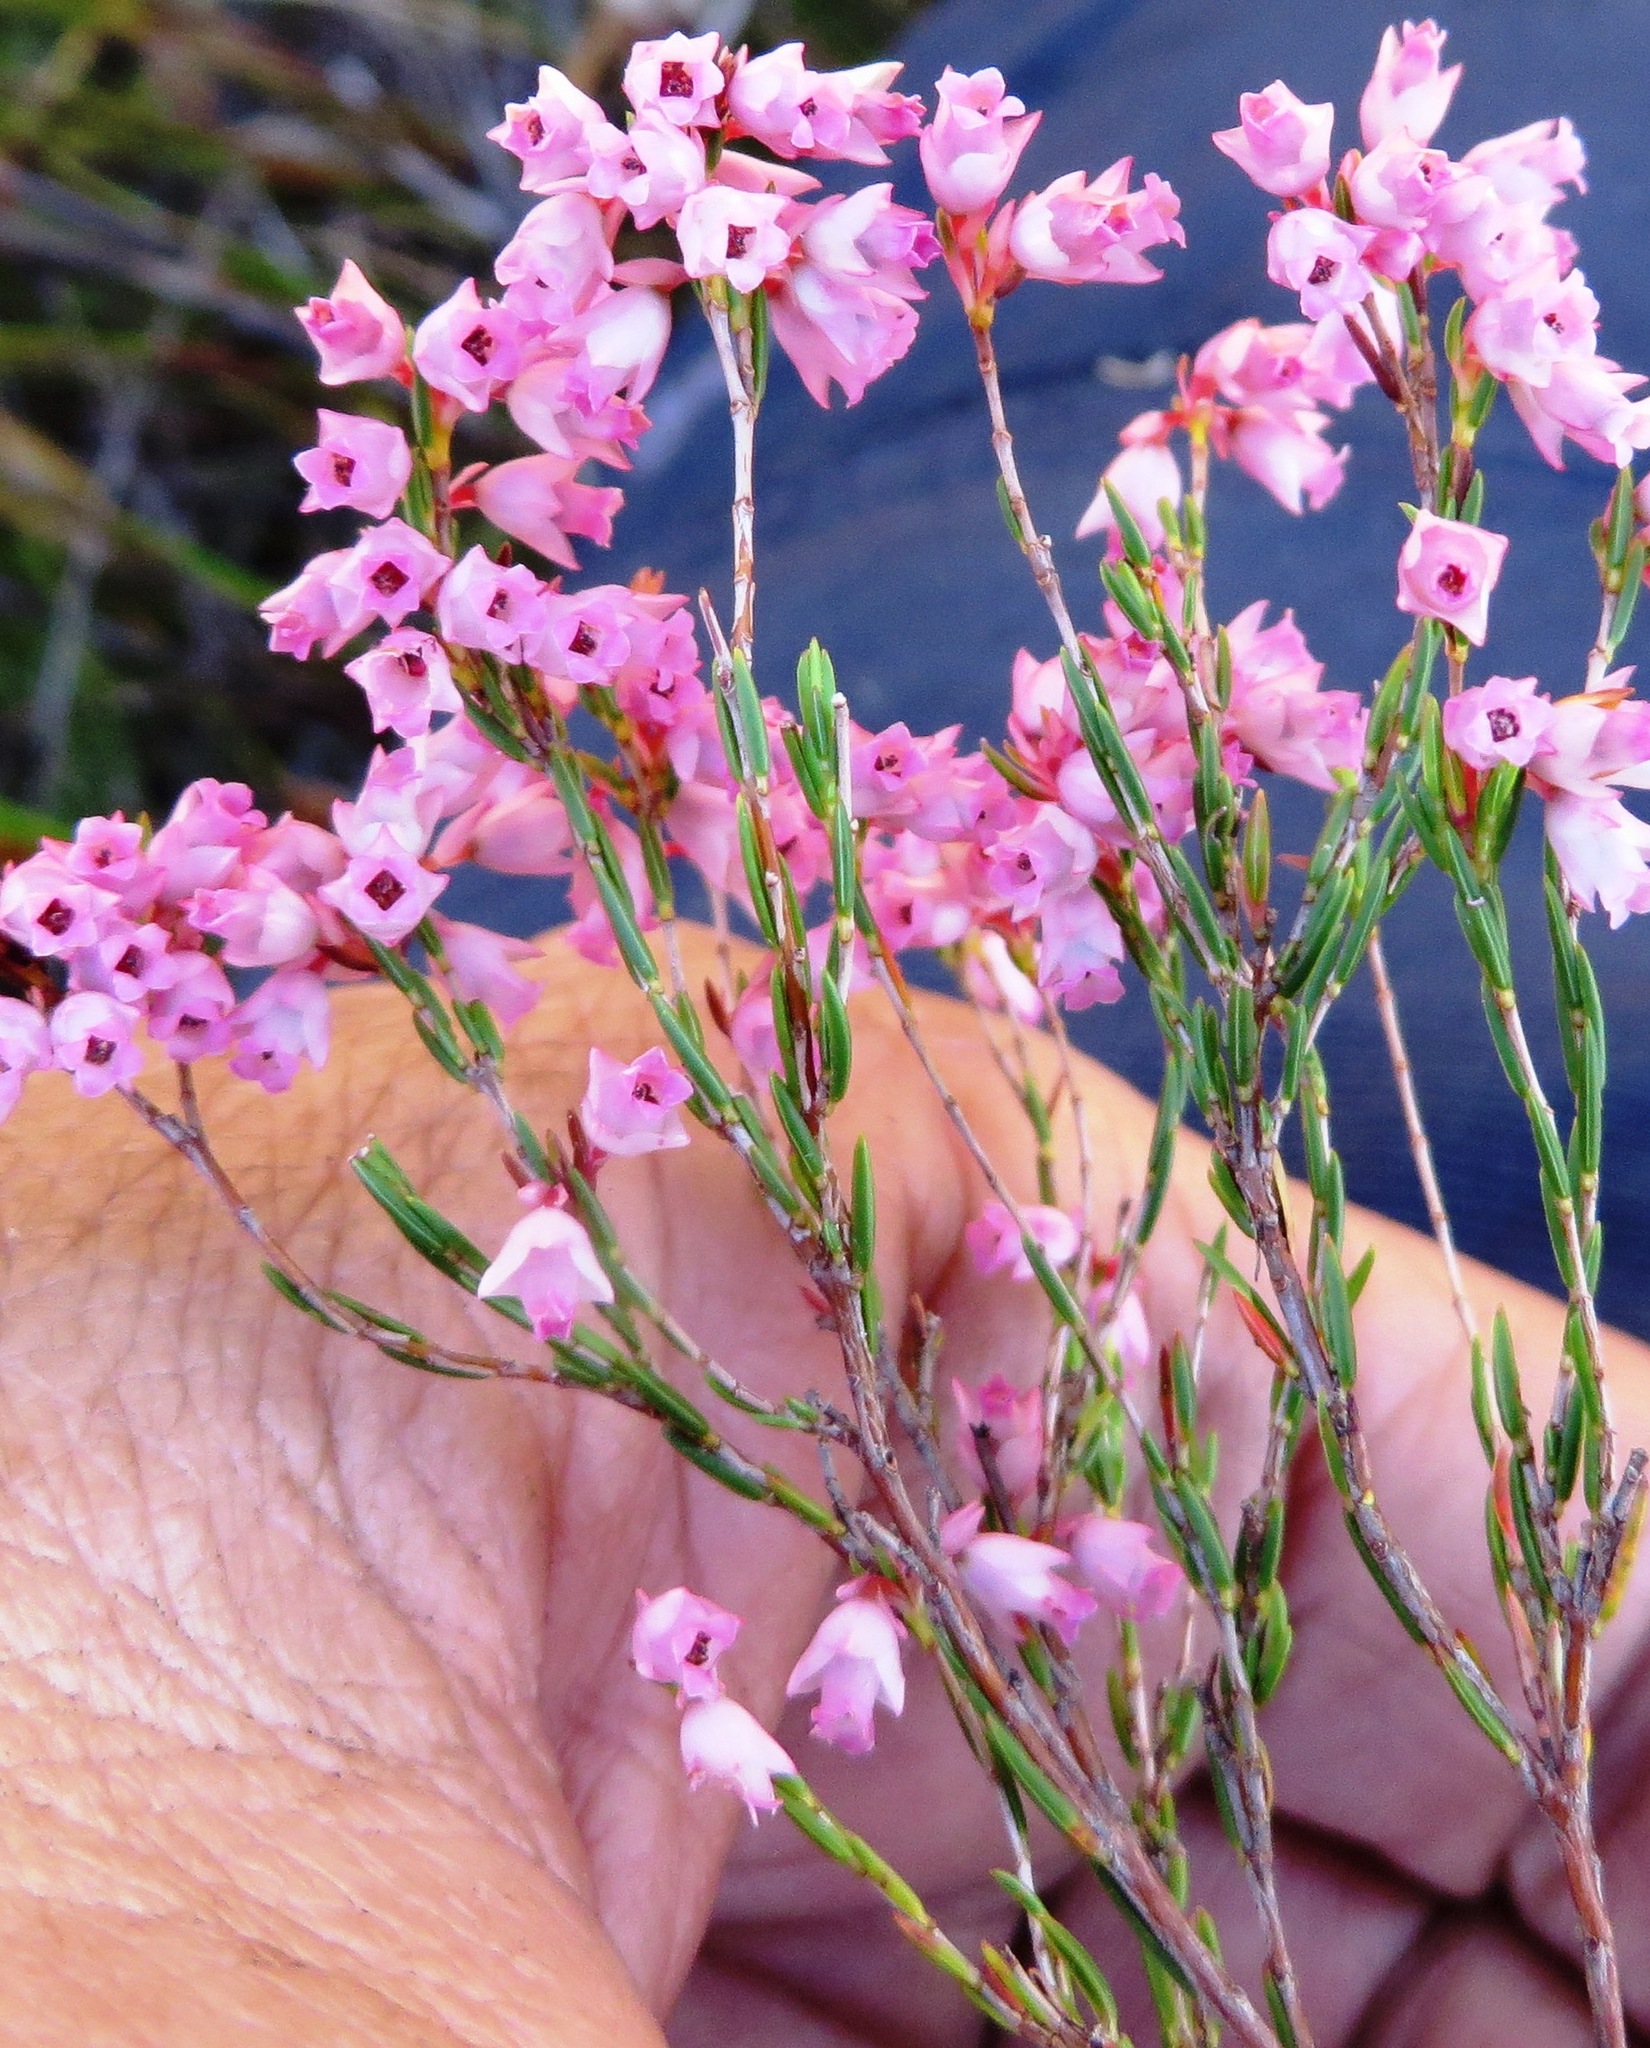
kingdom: Plantae
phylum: Tracheophyta
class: Magnoliopsida
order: Ericales
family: Ericaceae
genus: Erica
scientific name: Erica tenuifolia
